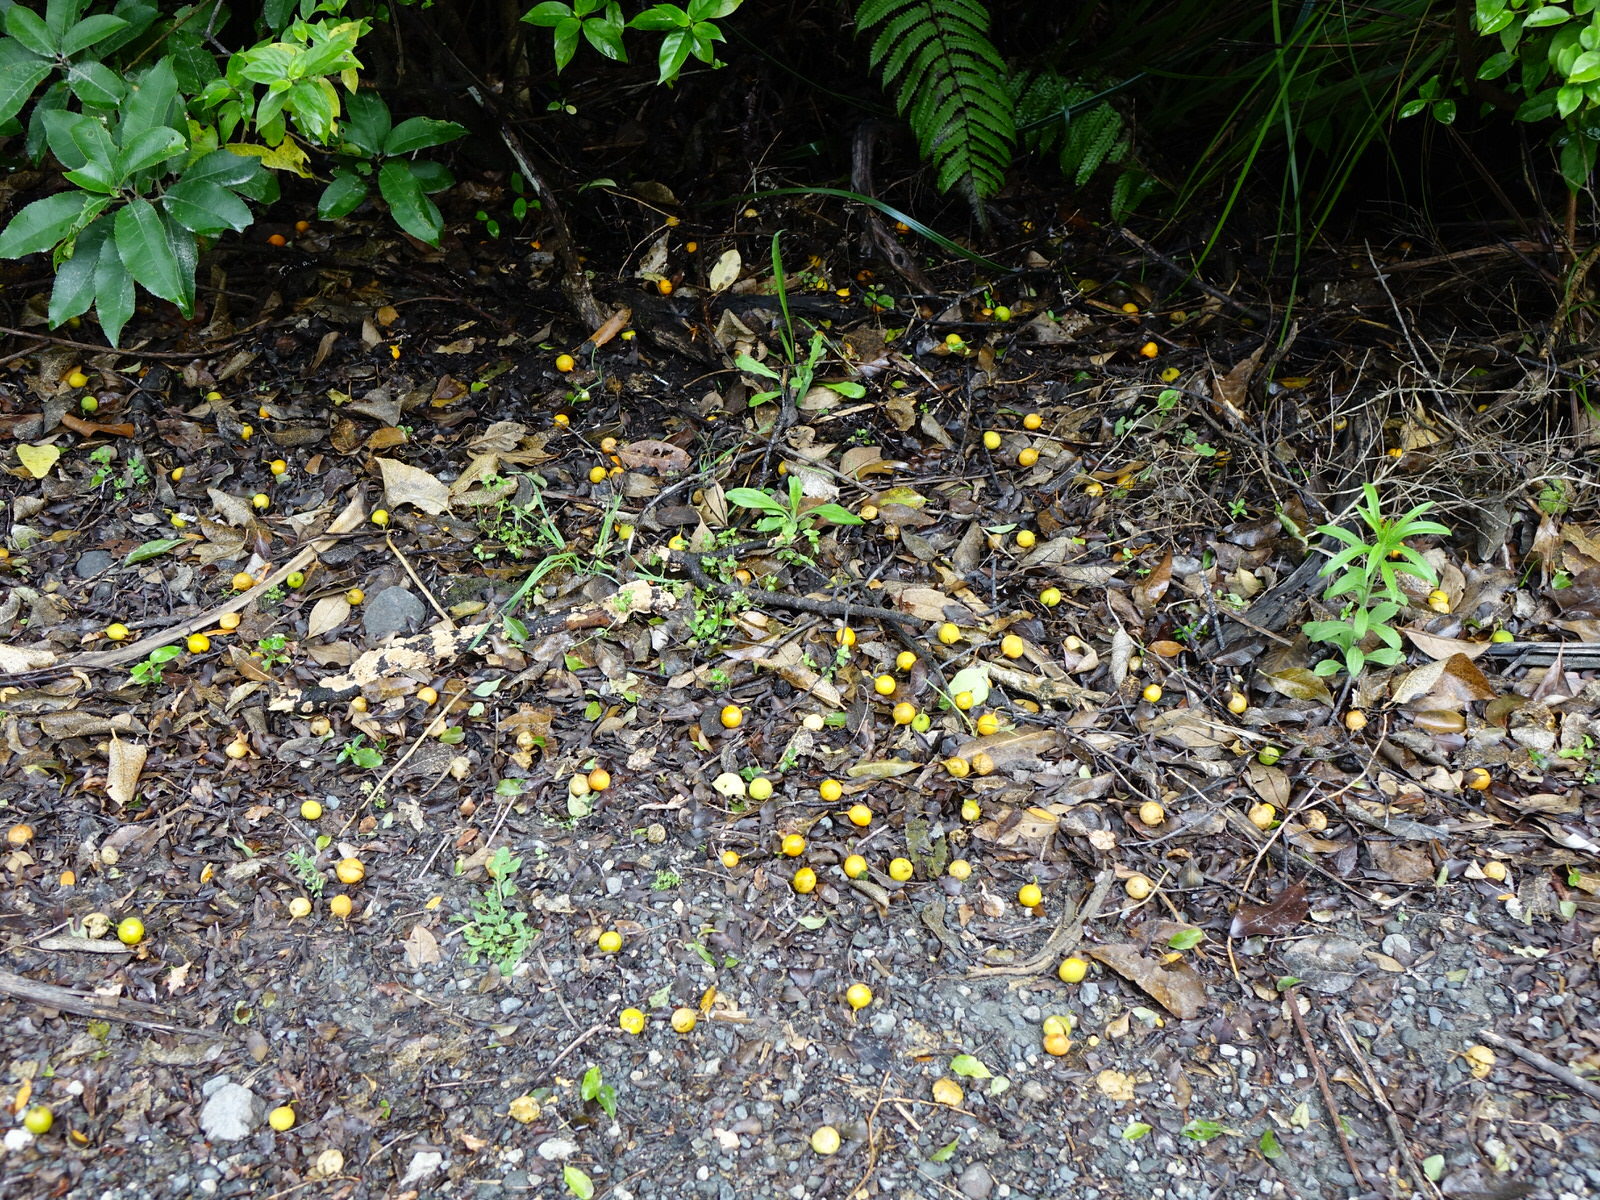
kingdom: Plantae
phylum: Tracheophyta
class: Magnoliopsida
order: Malpighiales
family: Passifloraceae
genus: Passiflora
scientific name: Passiflora tetrandra
